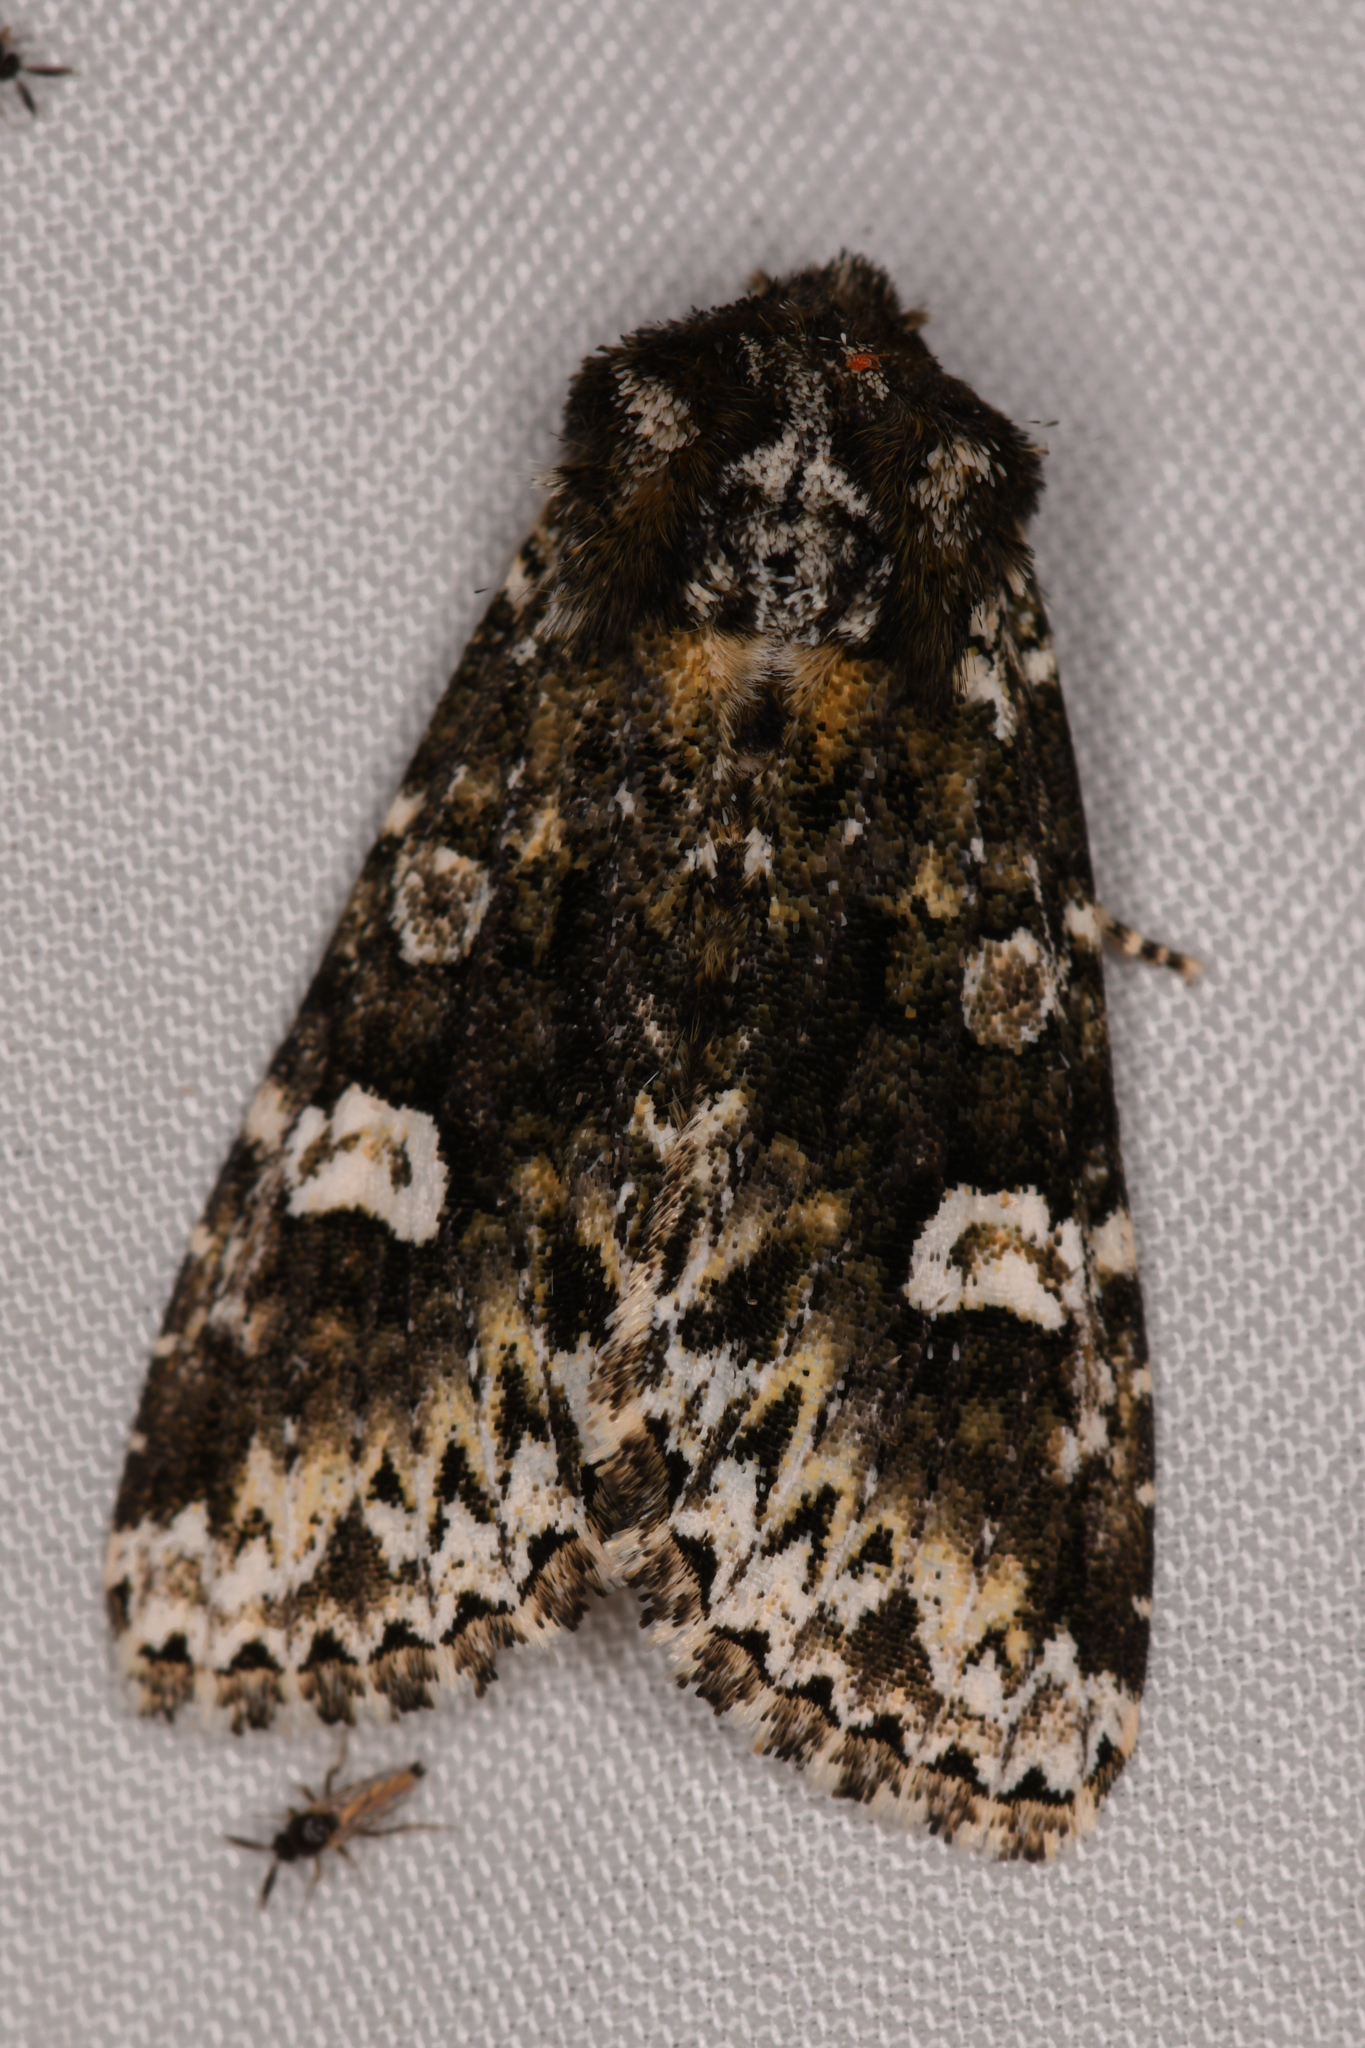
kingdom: Animalia
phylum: Arthropoda
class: Insecta
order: Lepidoptera
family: Noctuidae
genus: Melanchra
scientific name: Melanchra adjuncta
